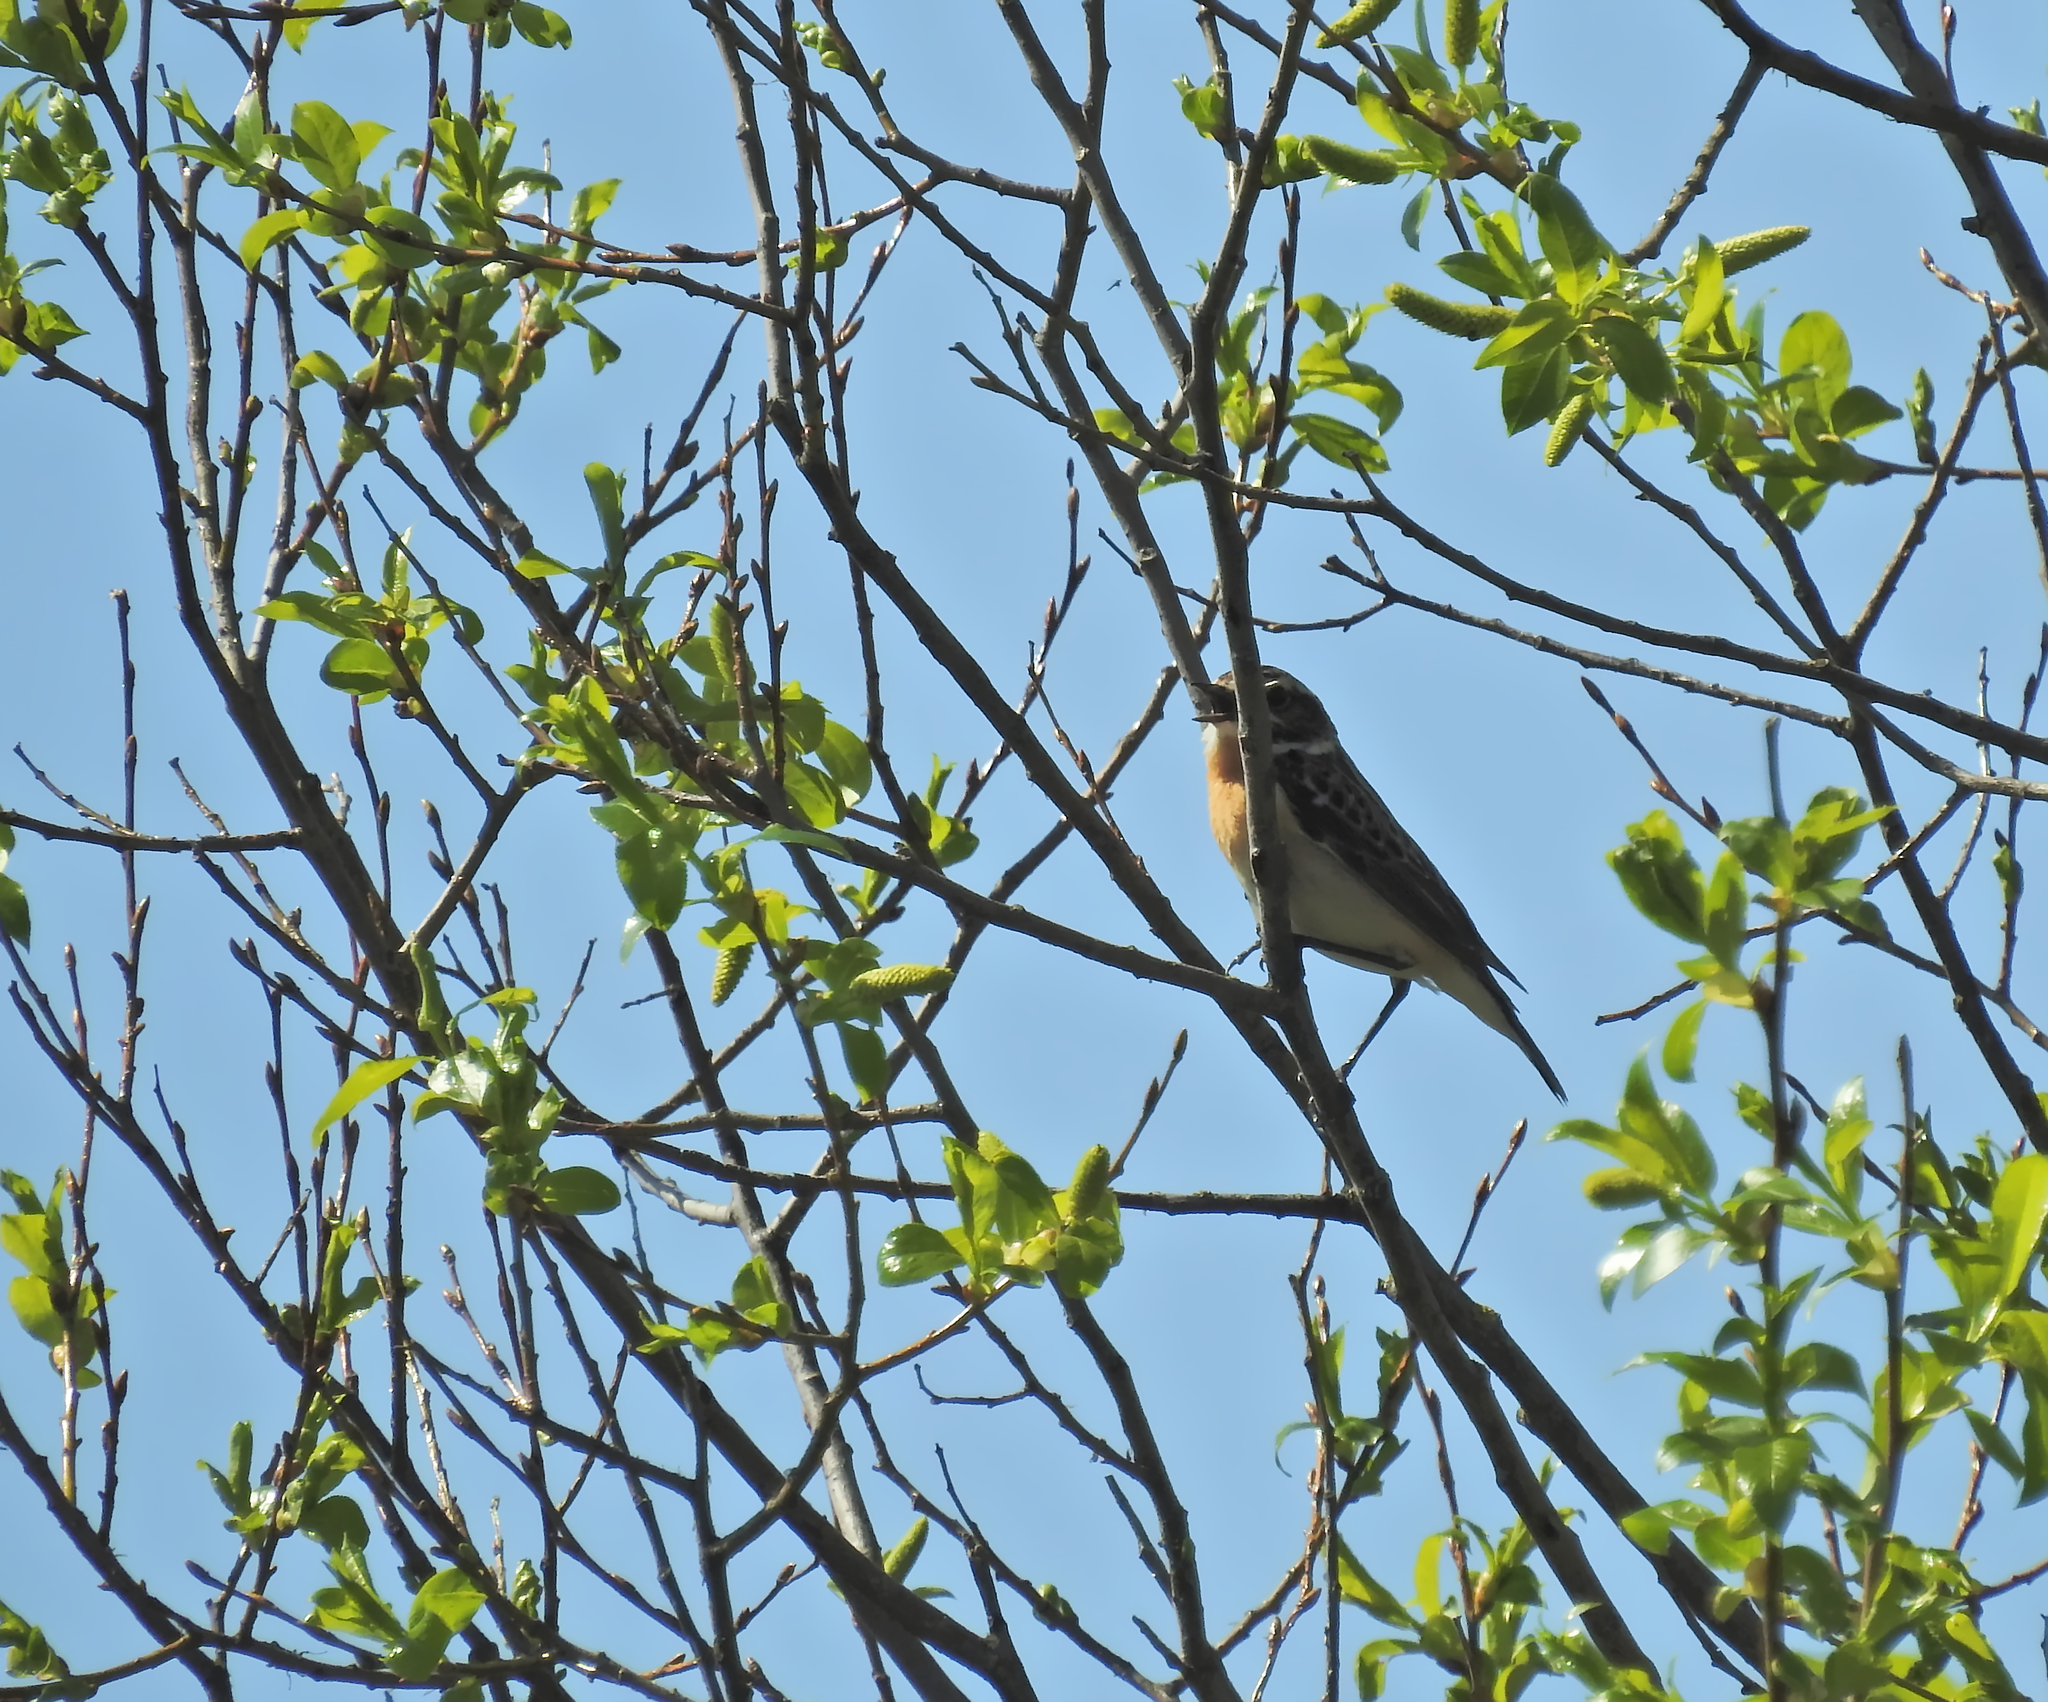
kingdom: Animalia
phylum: Chordata
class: Aves
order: Passeriformes
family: Muscicapidae
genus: Saxicola
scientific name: Saxicola rubetra
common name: Whinchat
